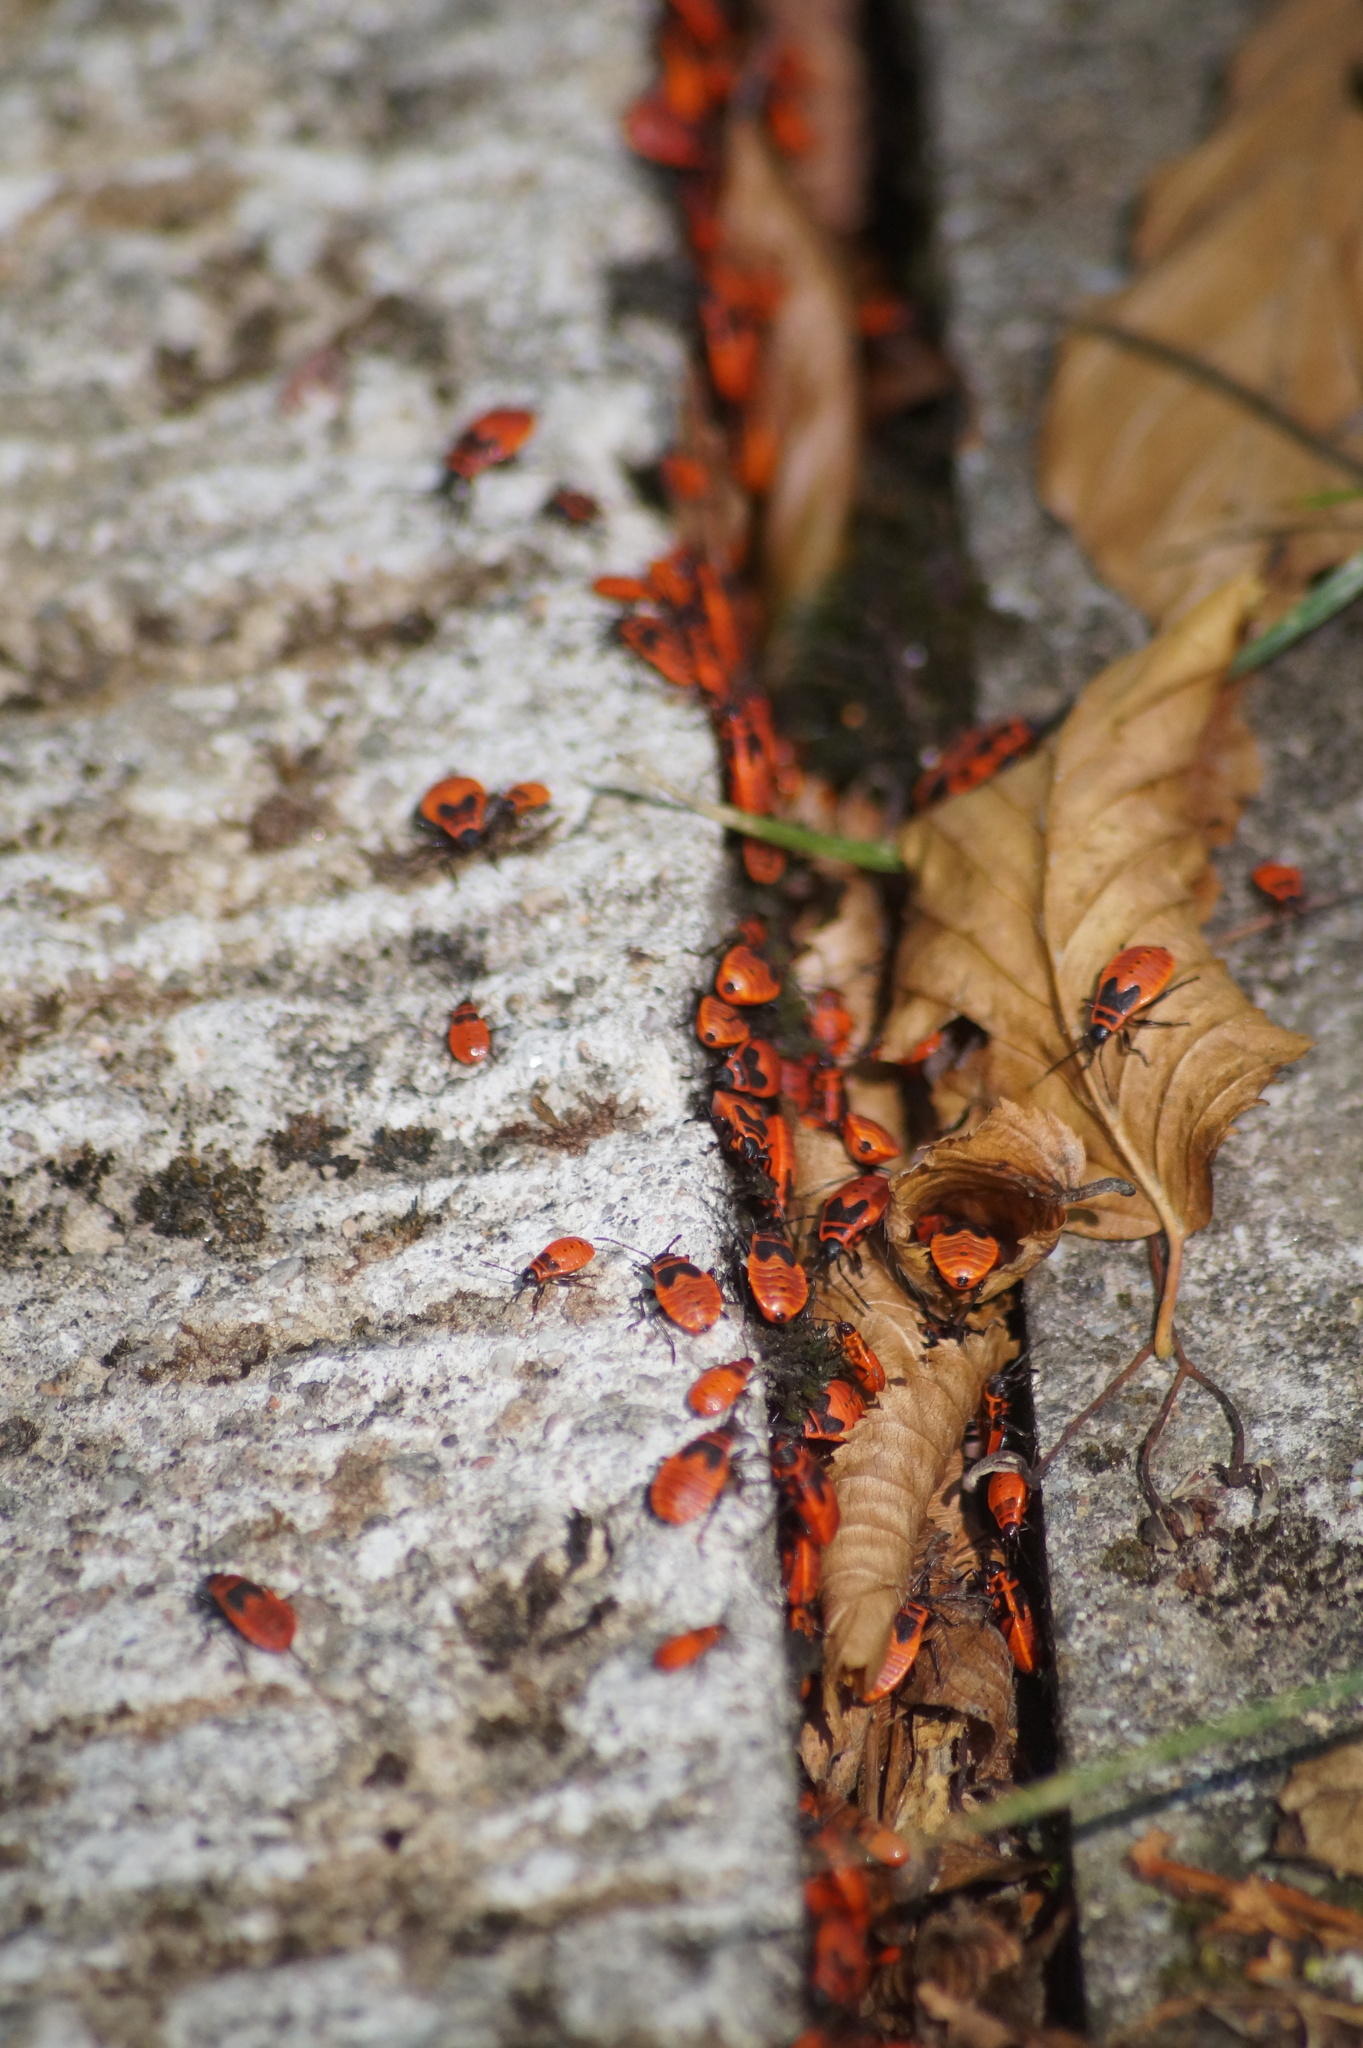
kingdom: Animalia
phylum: Arthropoda
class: Insecta
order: Hemiptera
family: Pyrrhocoridae
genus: Pyrrhocoris
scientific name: Pyrrhocoris apterus
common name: Firebug
